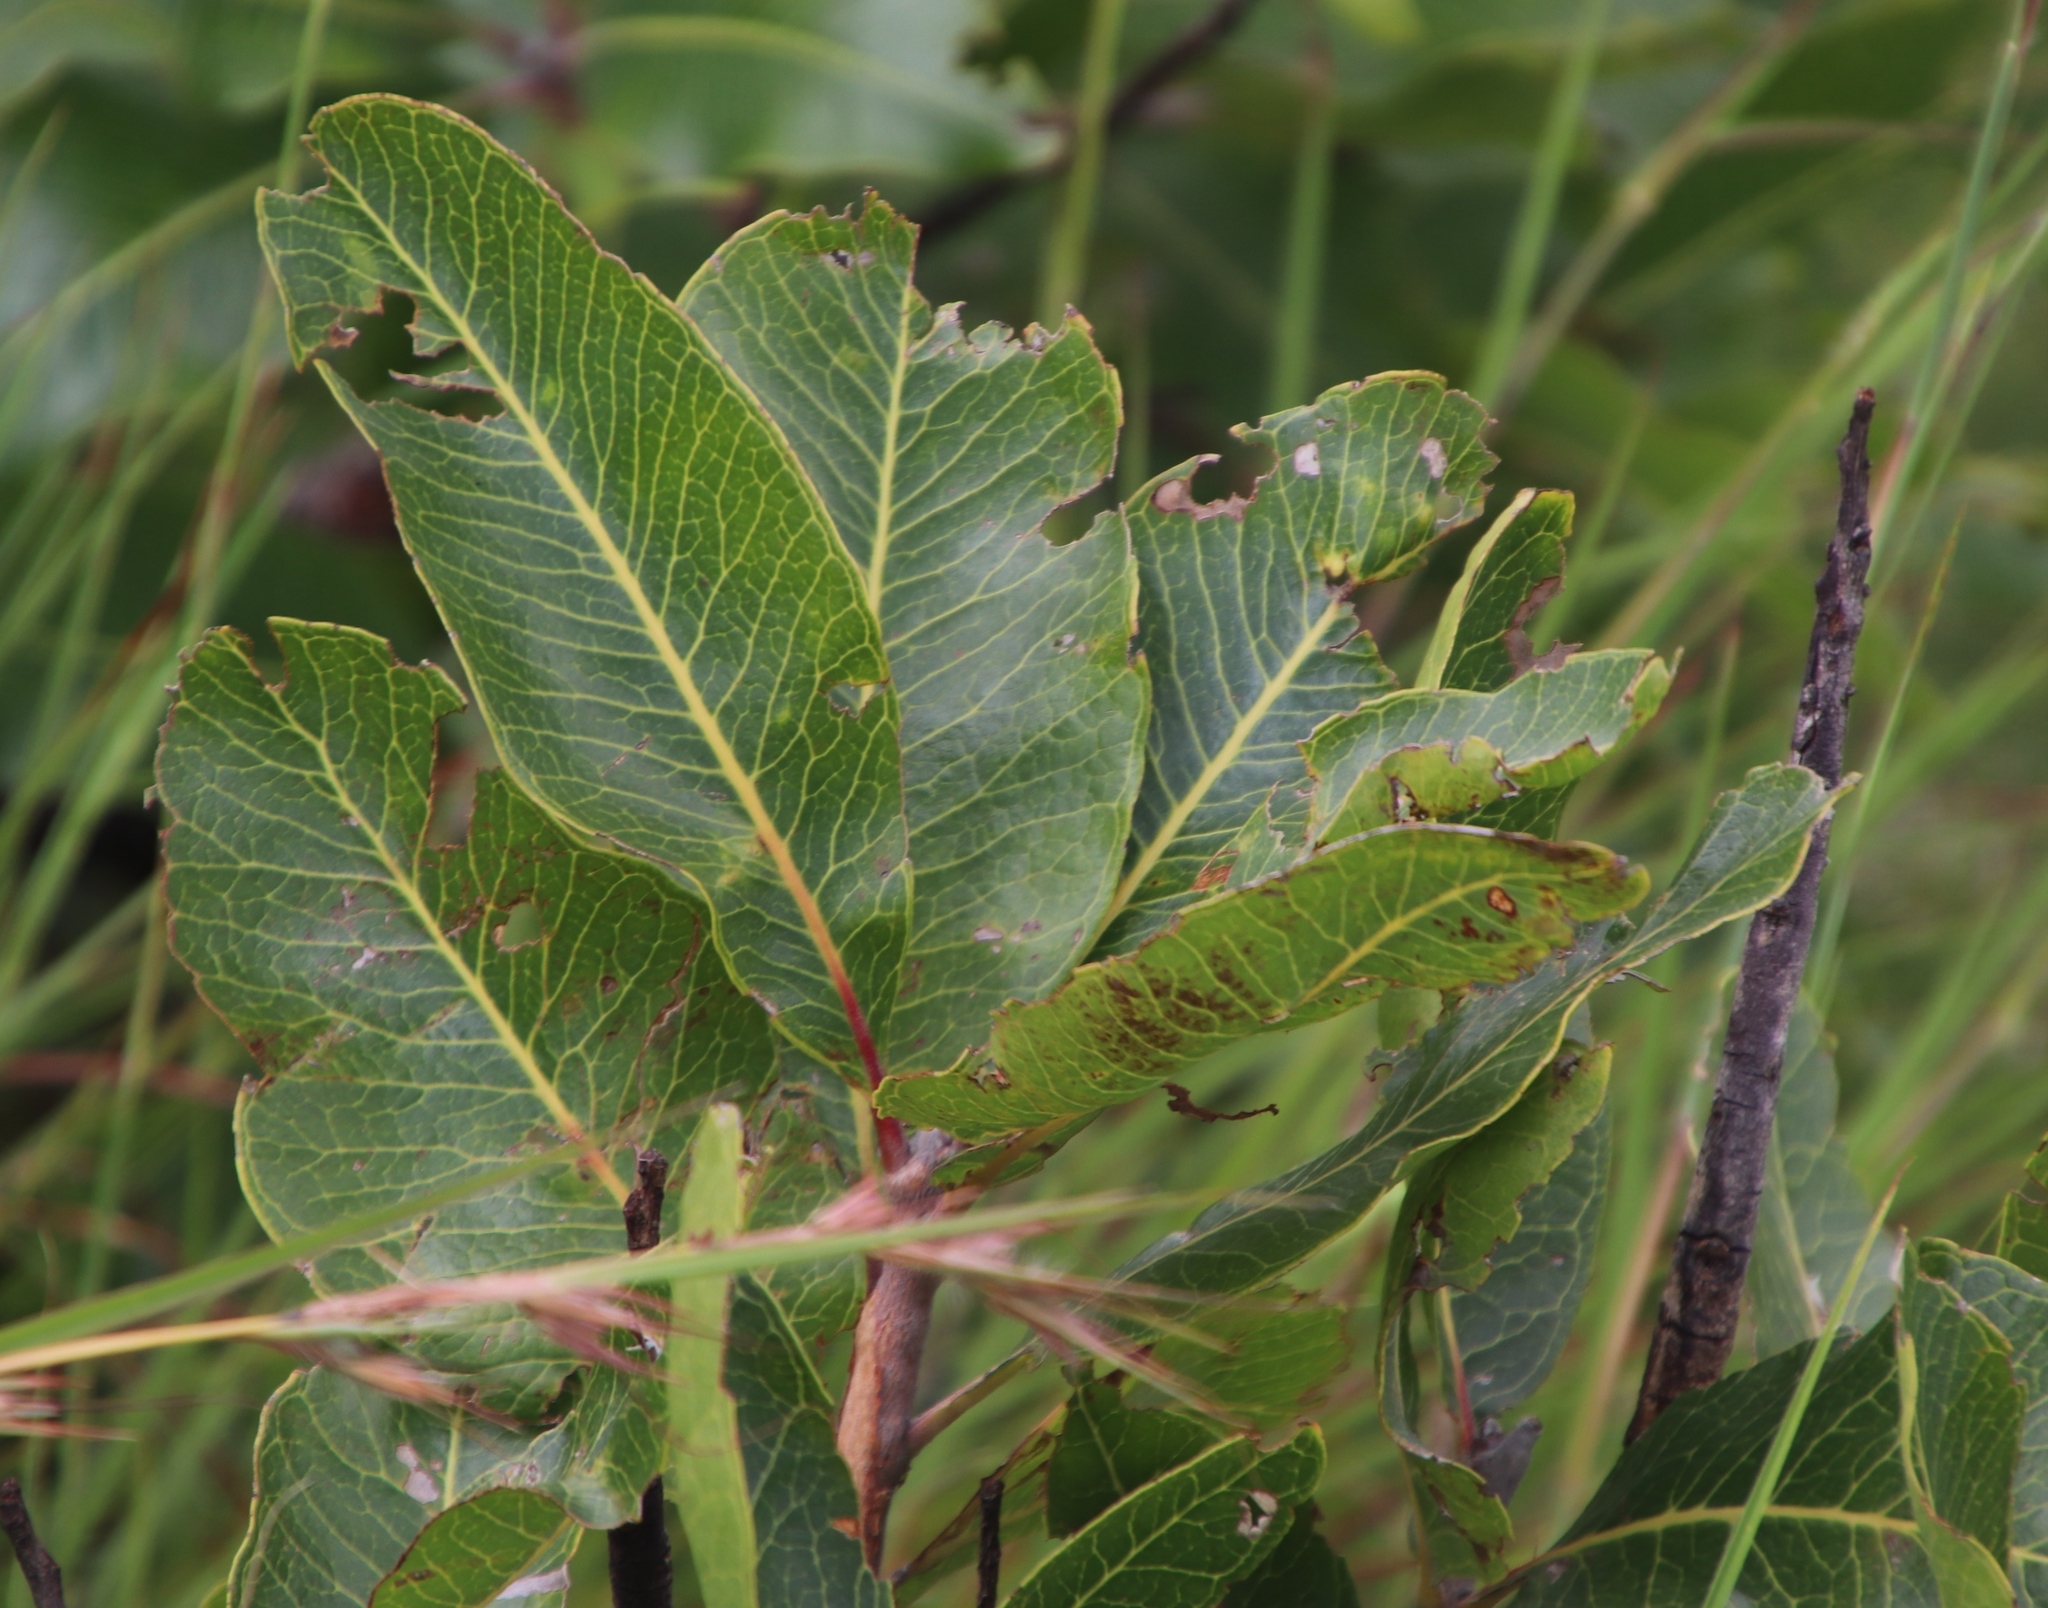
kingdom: Plantae
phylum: Tracheophyta
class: Magnoliopsida
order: Proteales
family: Proteaceae
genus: Faurea
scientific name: Faurea rochetiana
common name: Broad-leaved beech
